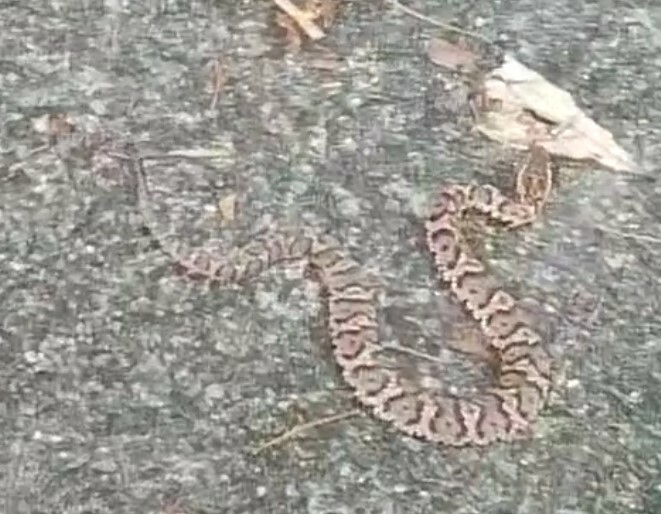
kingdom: Animalia
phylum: Chordata
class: Squamata
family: Viperidae
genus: Gloydius
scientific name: Gloydius blomhoffii
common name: Mamushi
